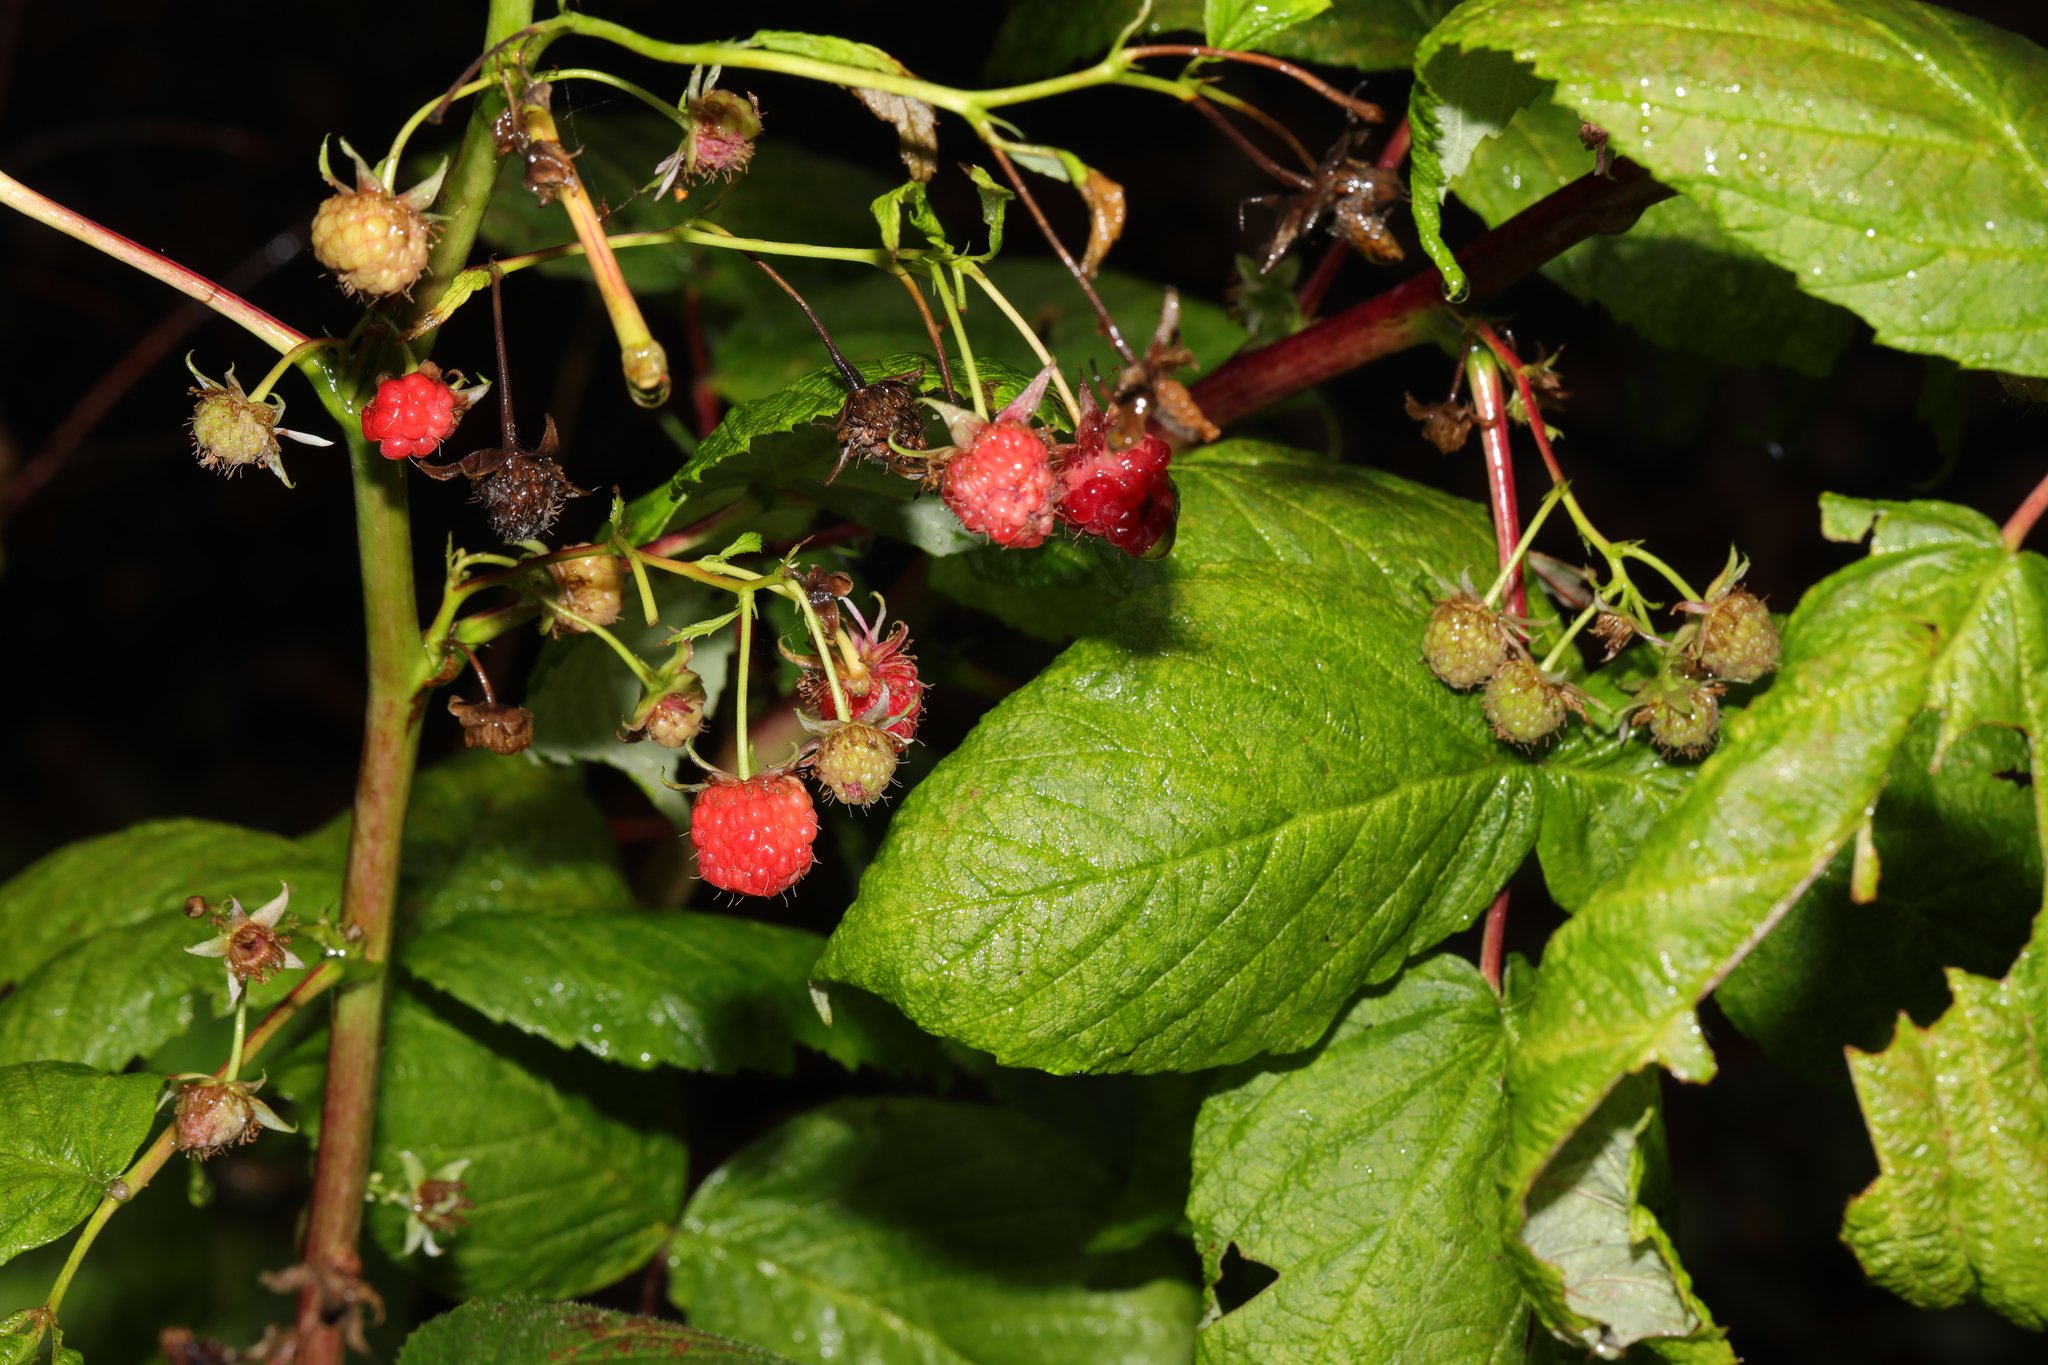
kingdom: Plantae
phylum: Tracheophyta
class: Magnoliopsida
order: Rosales
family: Rosaceae
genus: Rubus
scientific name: Rubus idaeus
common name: Raspberry
